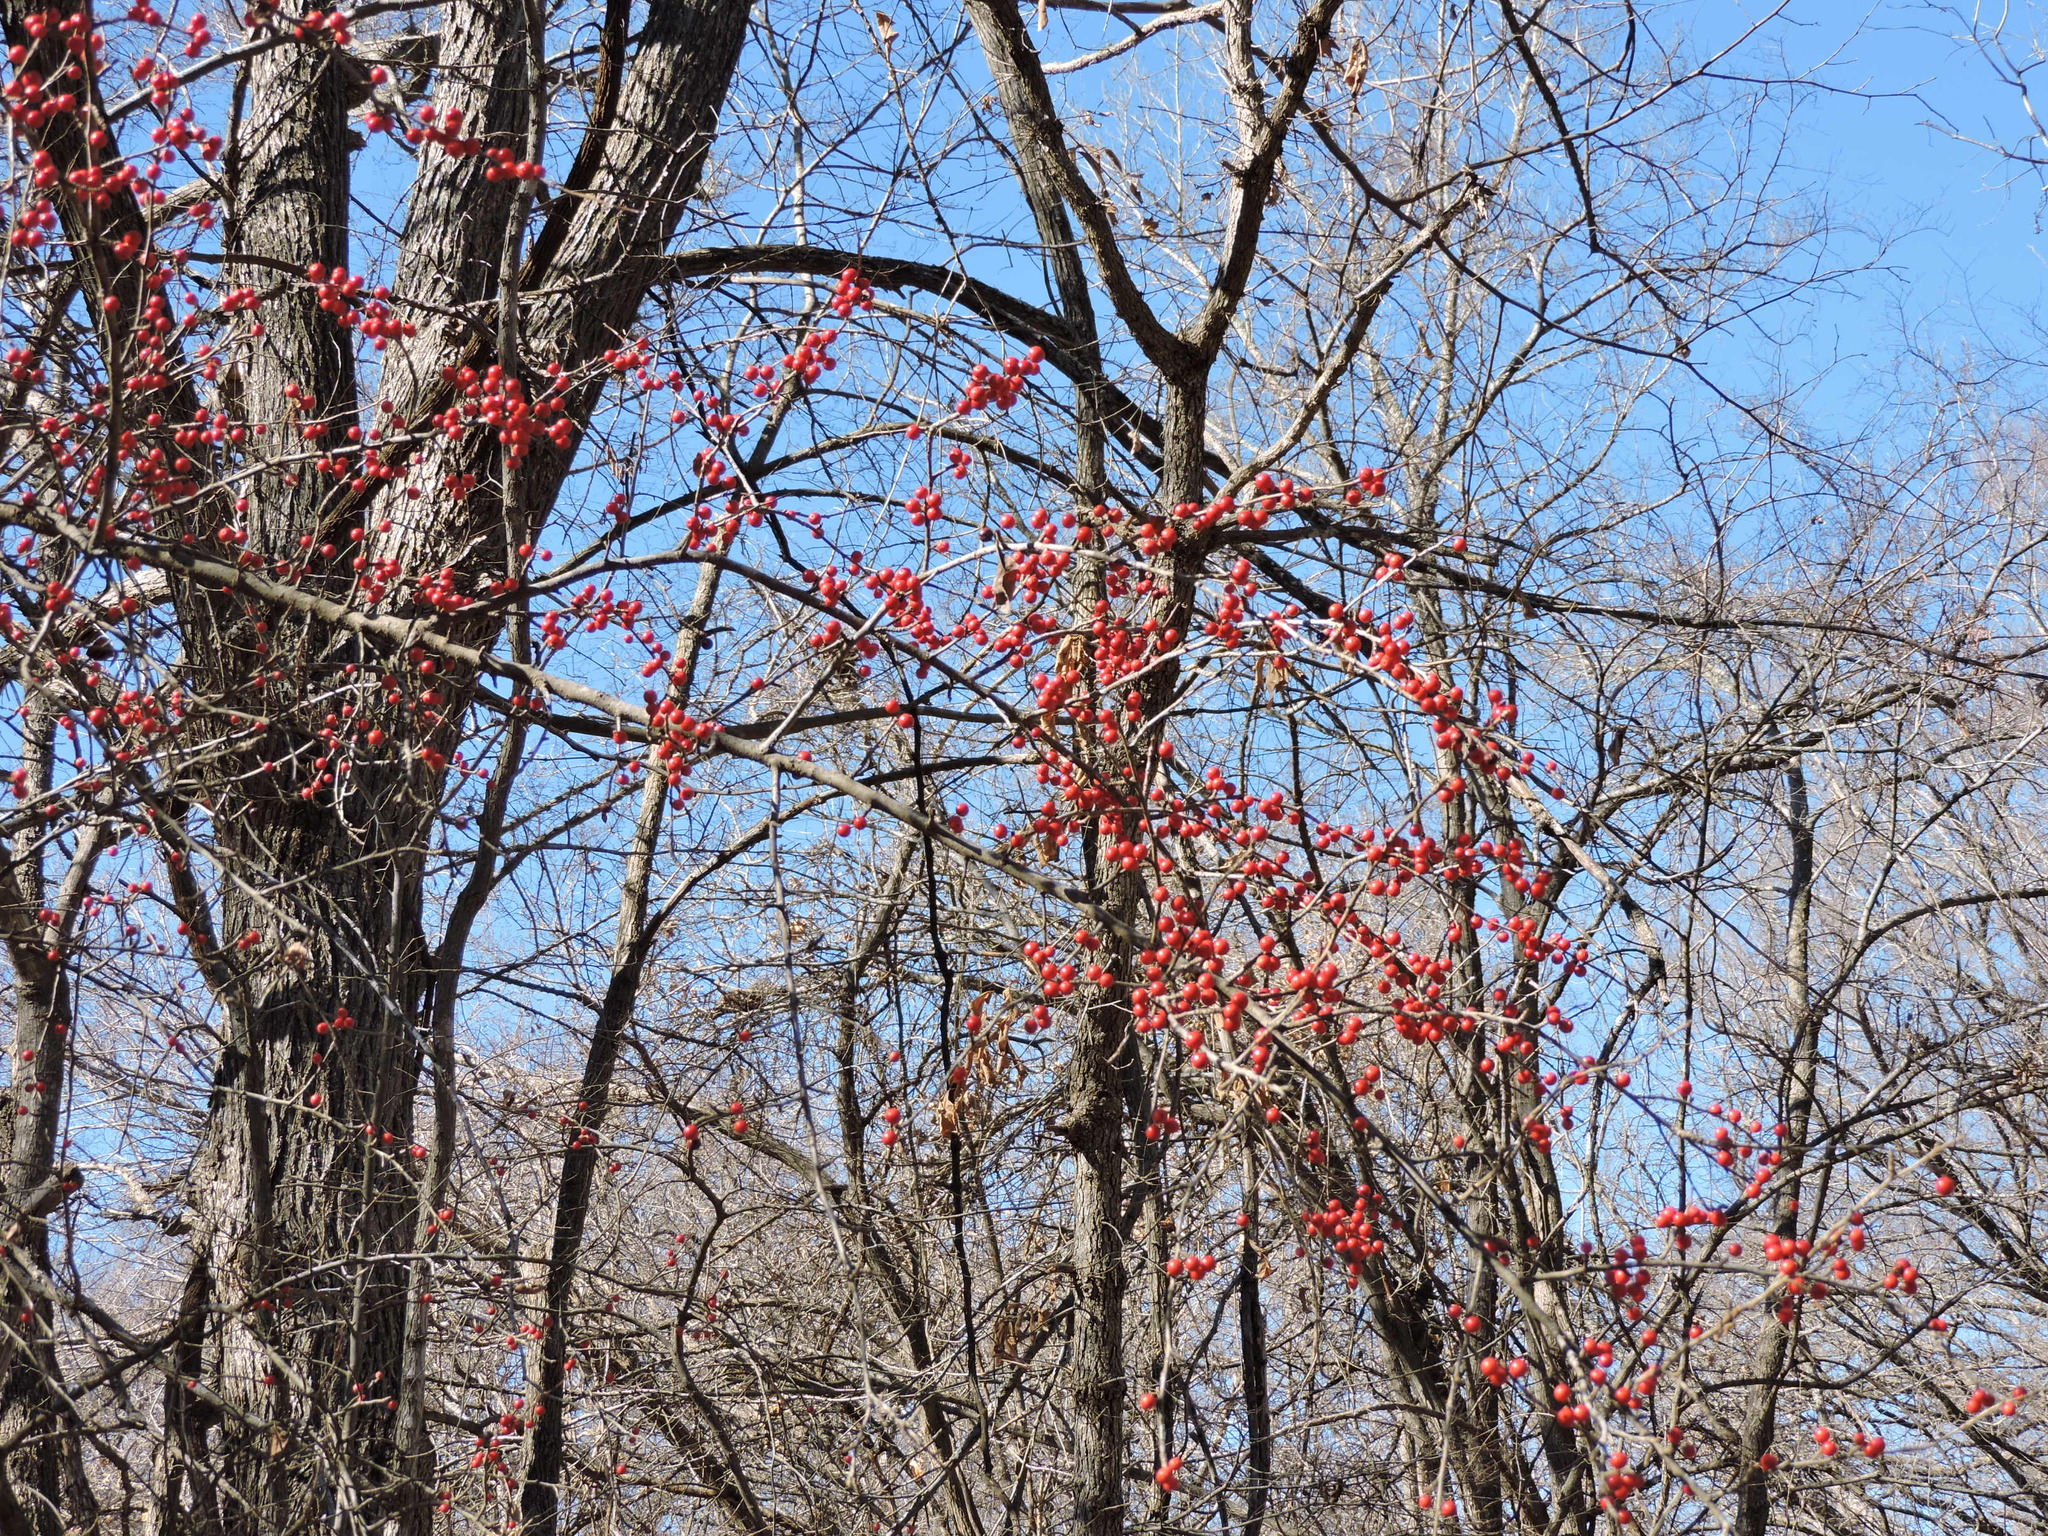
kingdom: Plantae
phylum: Tracheophyta
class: Magnoliopsida
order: Aquifoliales
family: Aquifoliaceae
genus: Ilex
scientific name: Ilex decidua
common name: Possum-haw
